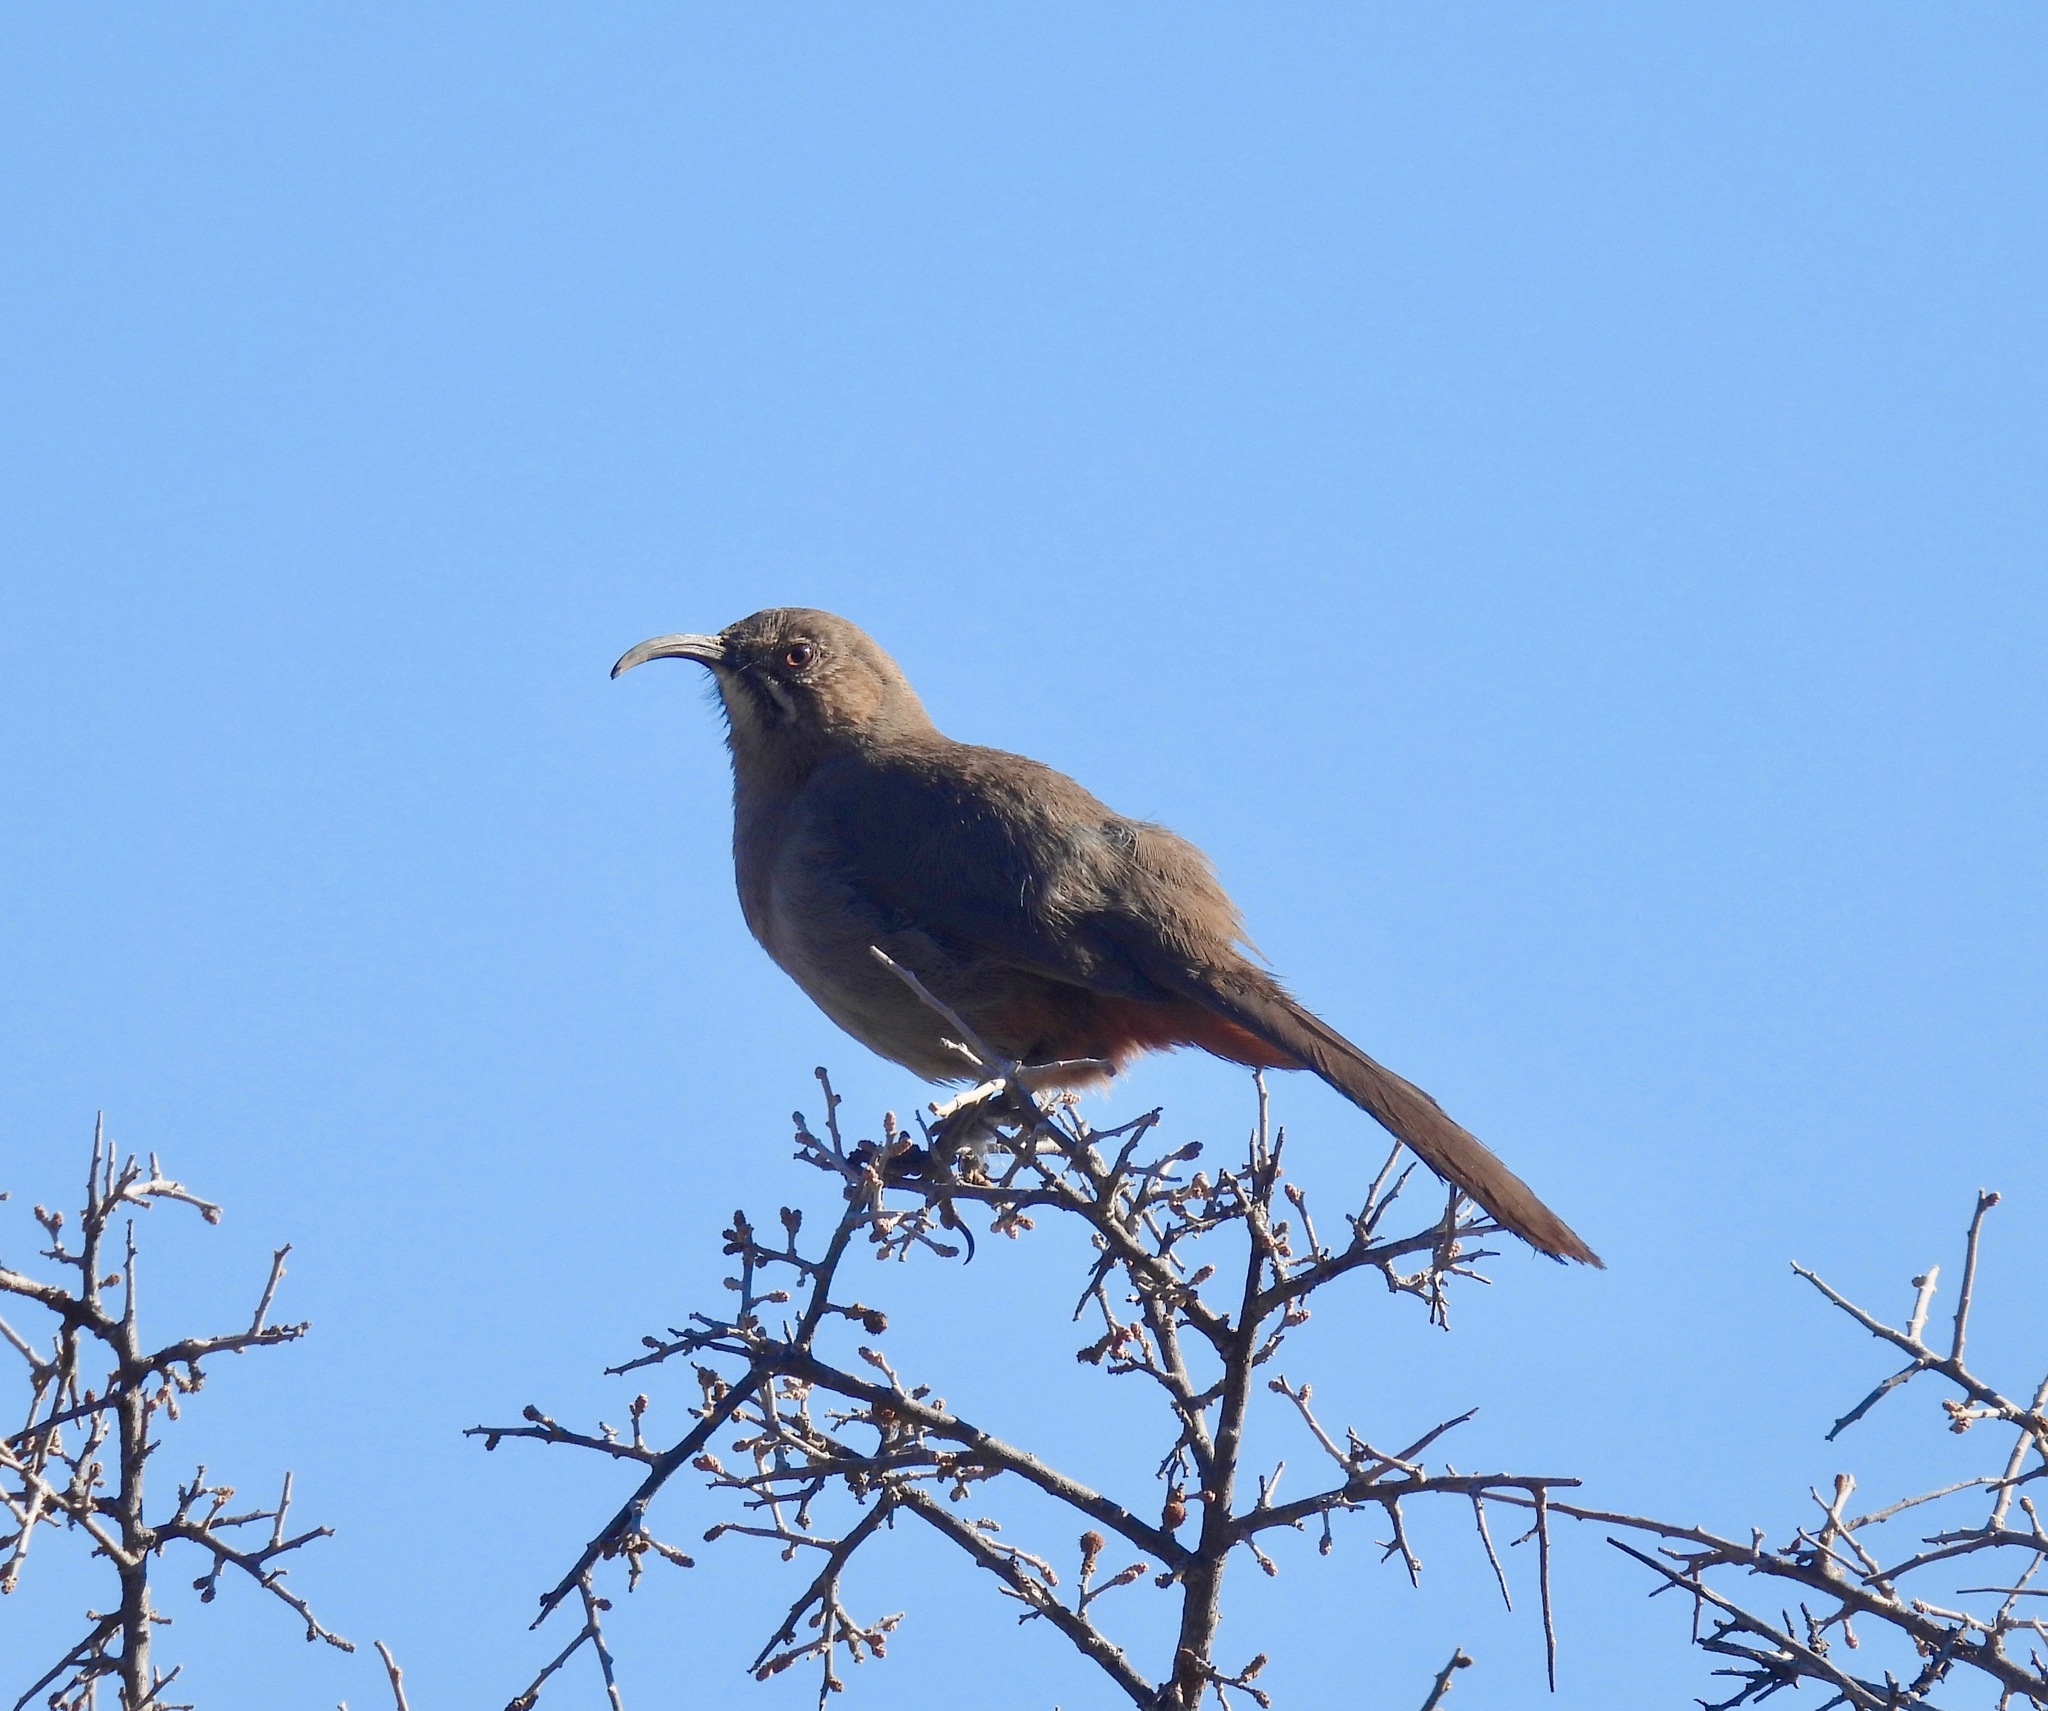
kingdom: Animalia
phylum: Chordata
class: Aves
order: Passeriformes
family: Mimidae
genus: Toxostoma
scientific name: Toxostoma crissale
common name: Crissal thrasher
